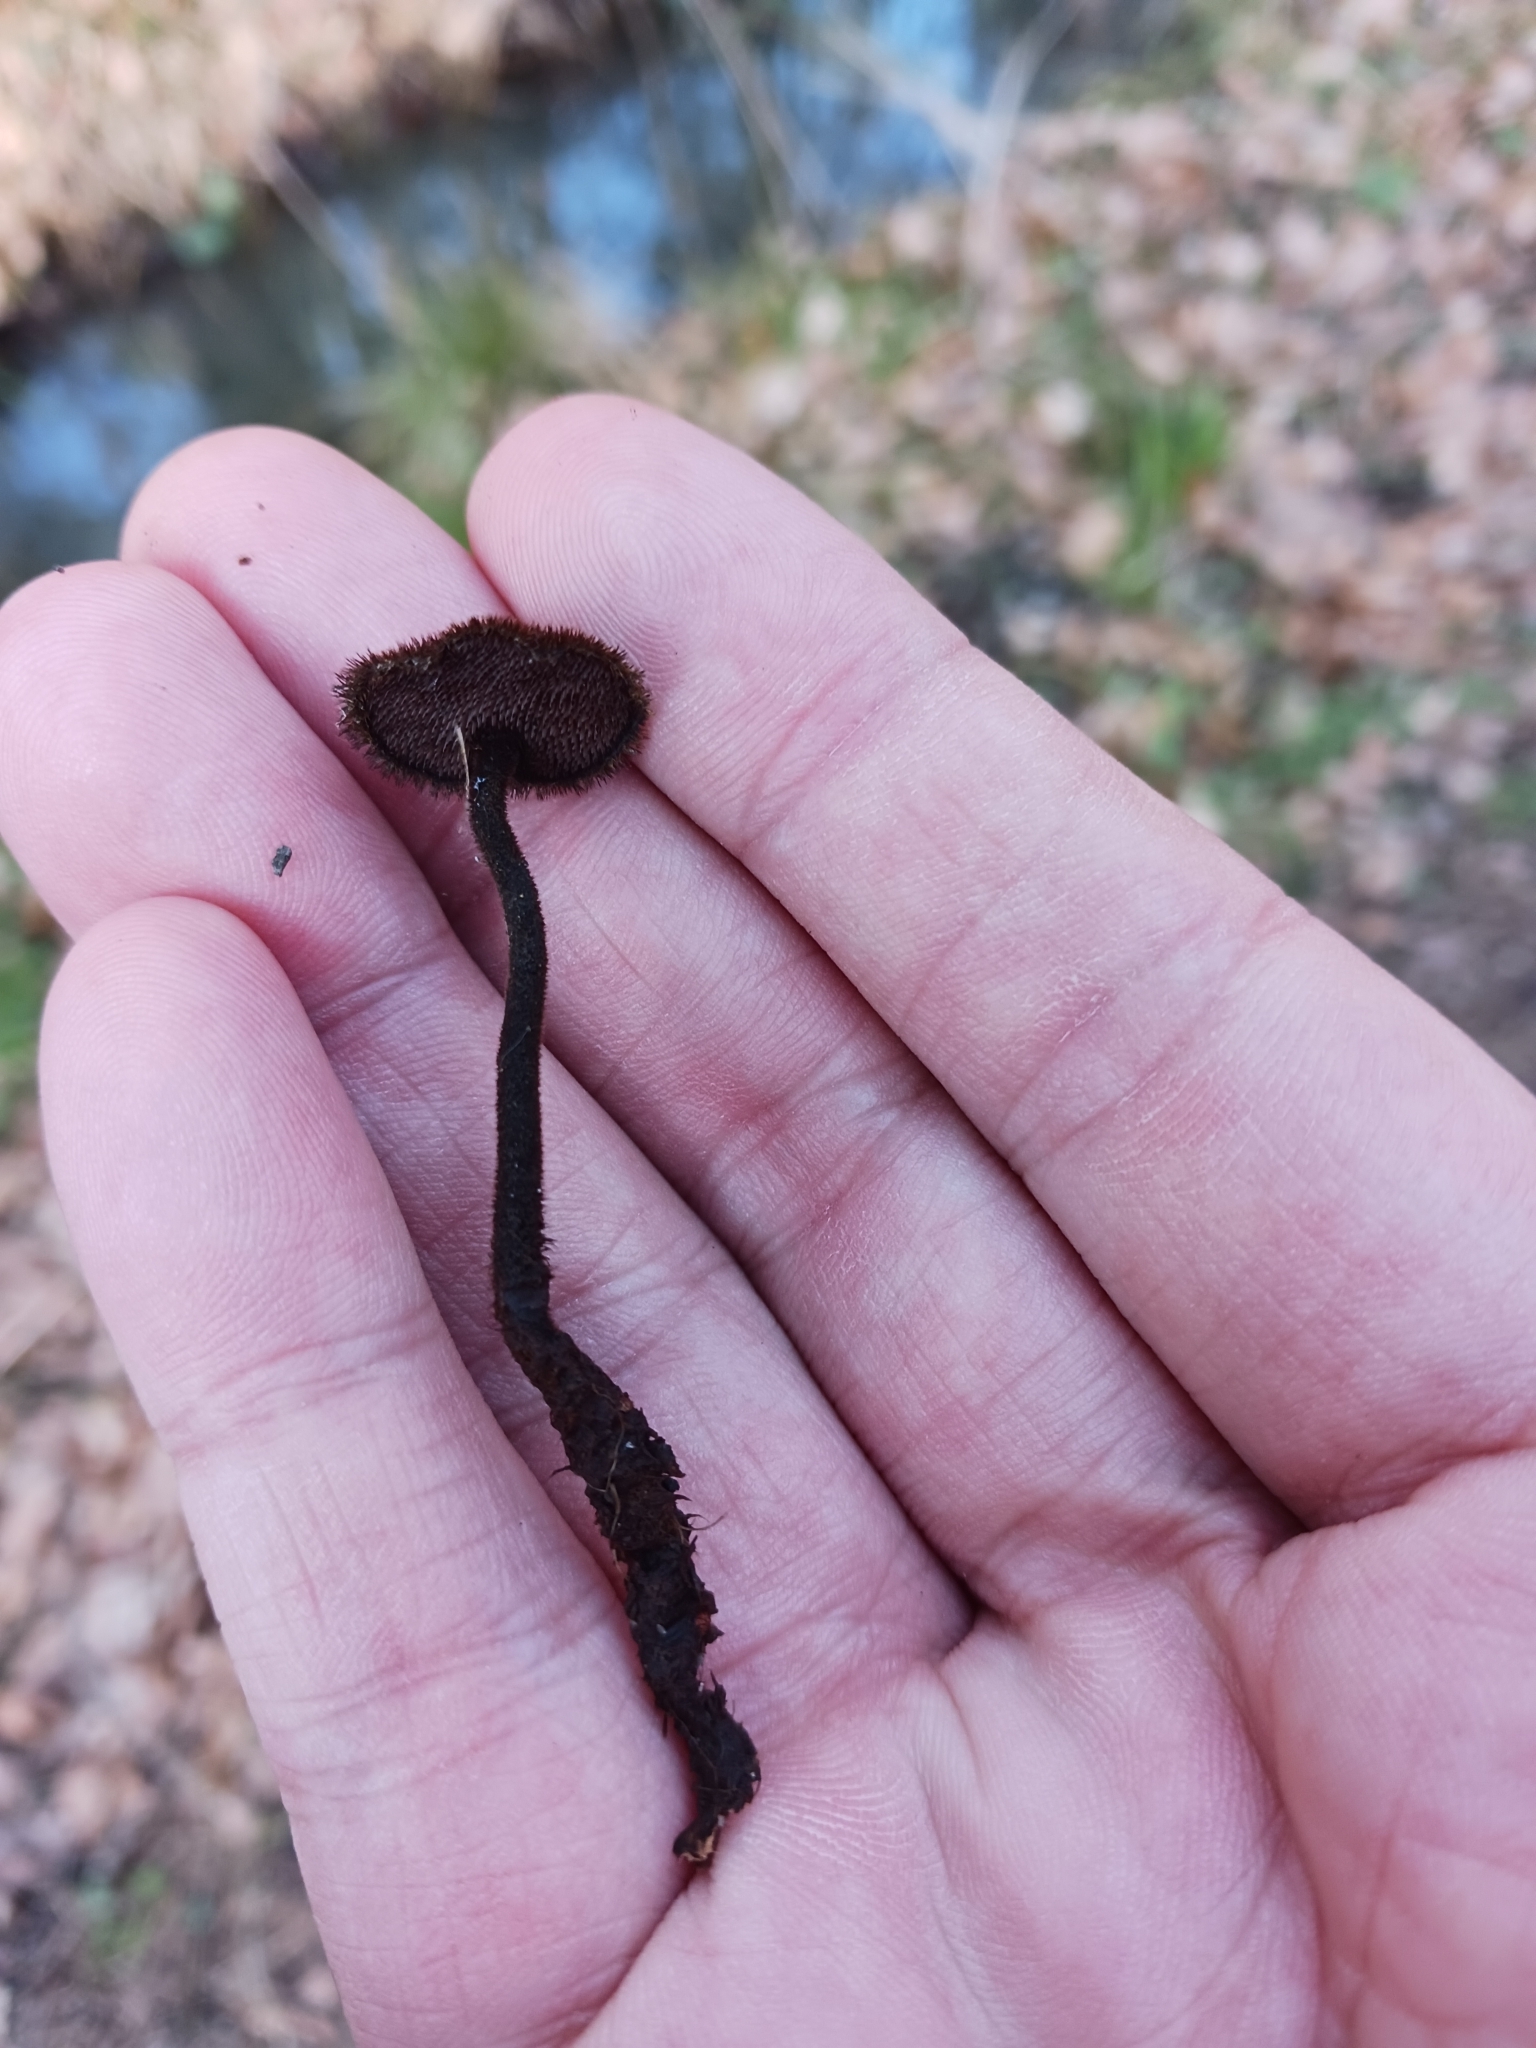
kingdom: Fungi
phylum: Basidiomycota
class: Agaricomycetes
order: Russulales
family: Auriscalpiaceae
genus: Auriscalpium
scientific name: Auriscalpium vulgare
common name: Earpick fungus
